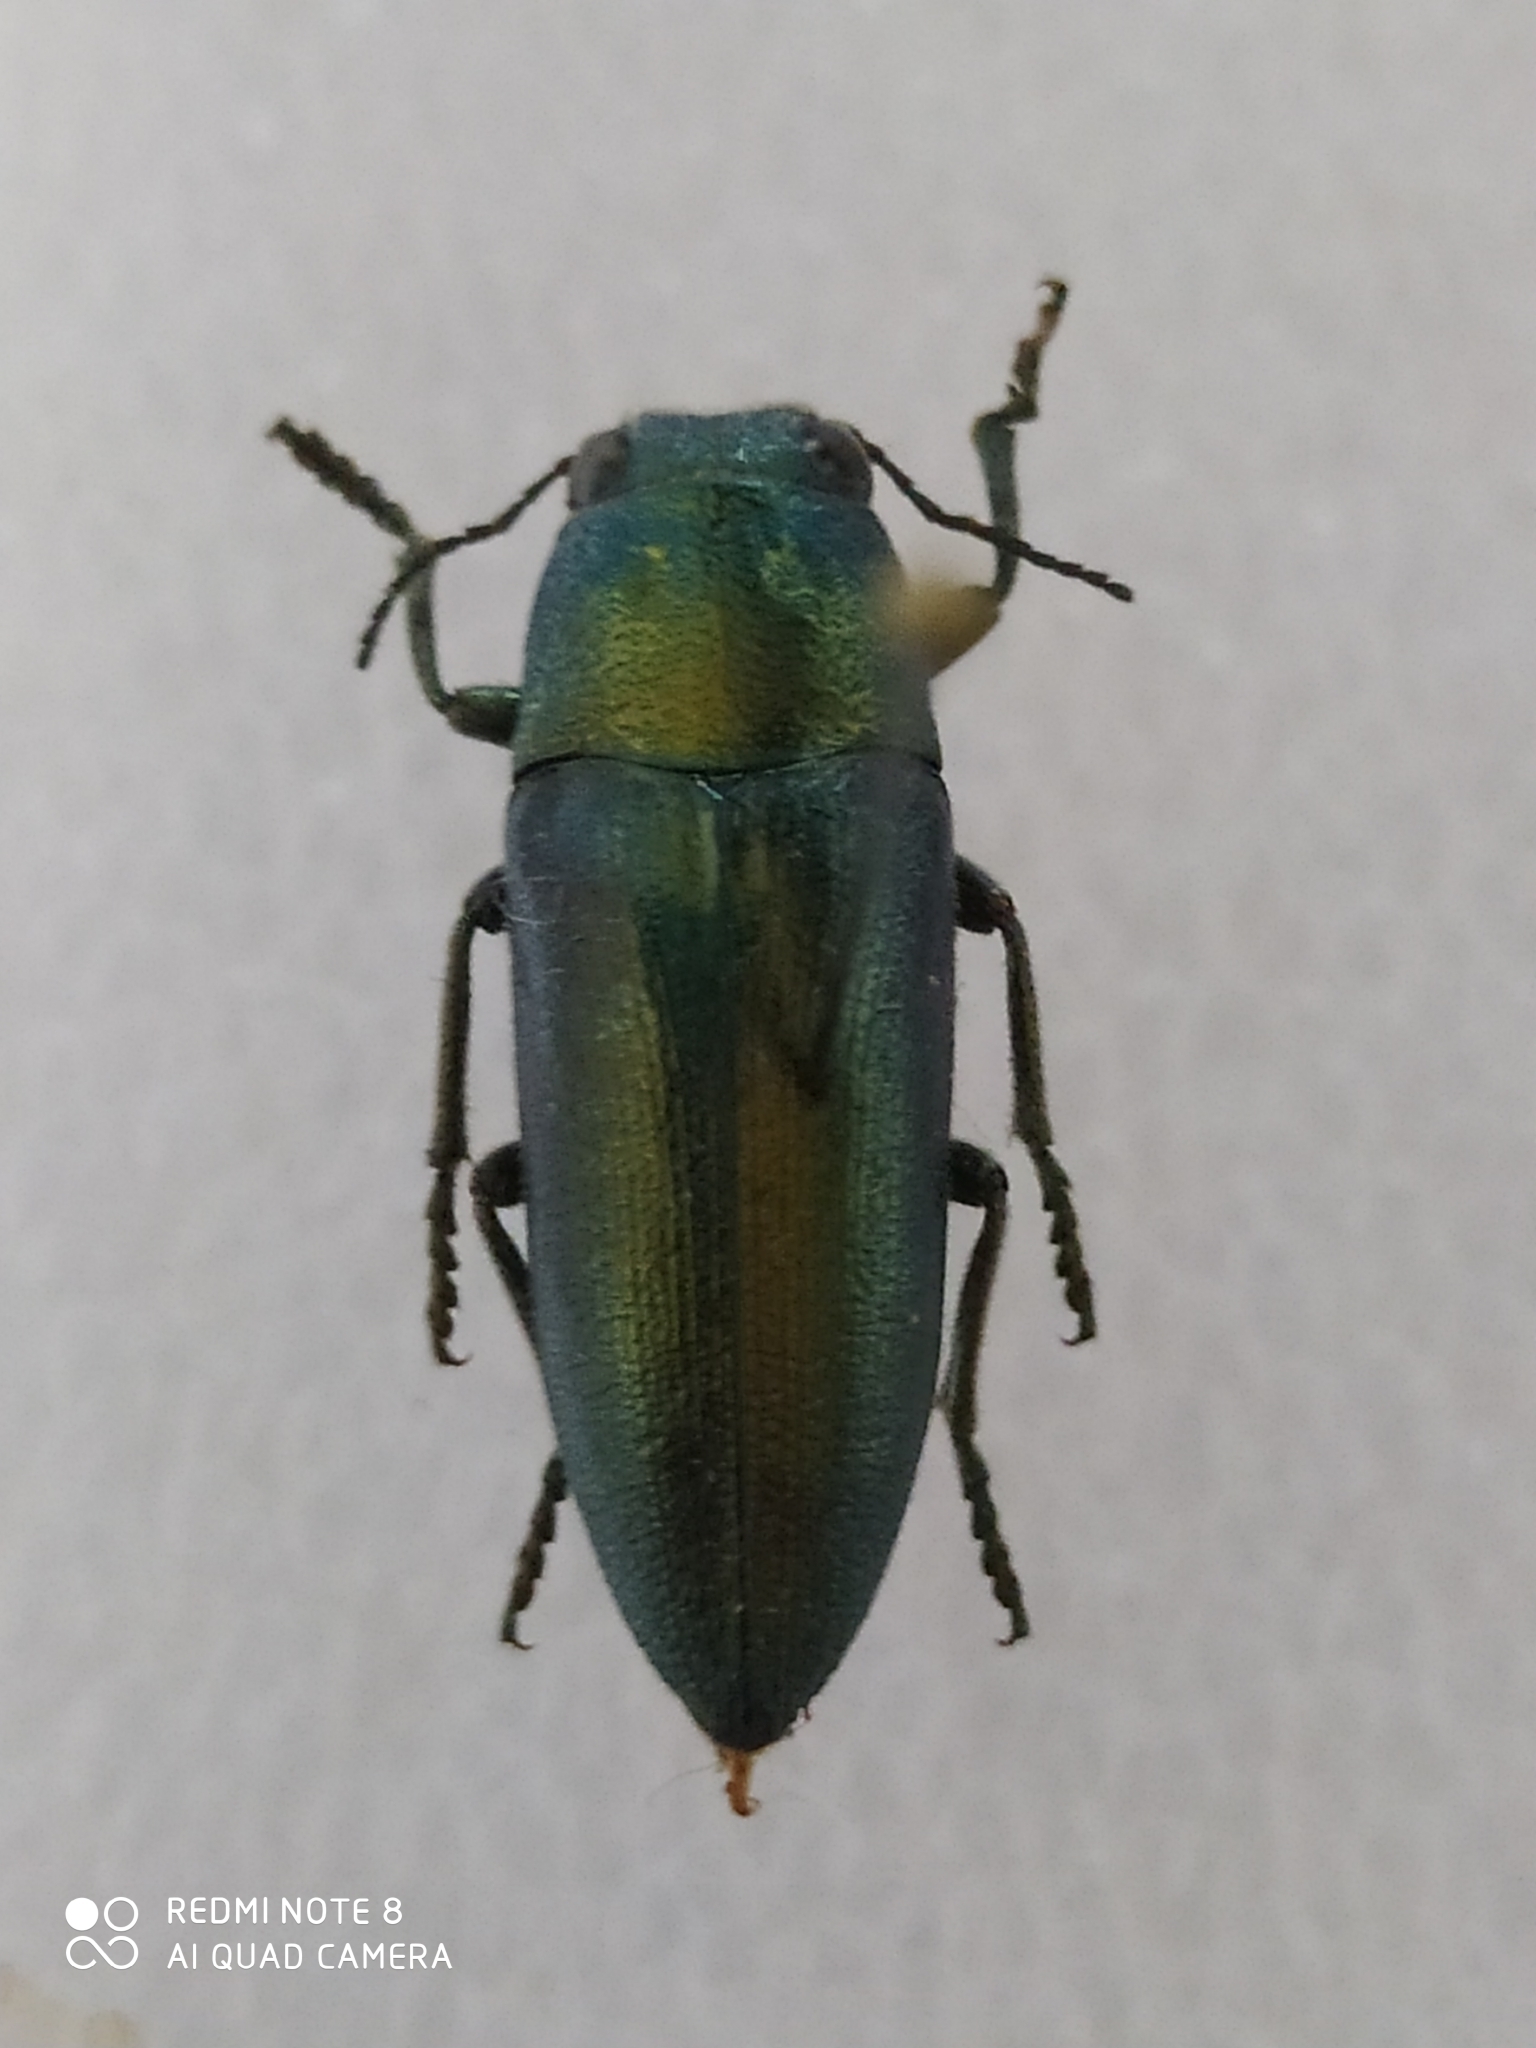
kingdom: Animalia
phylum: Arthropoda
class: Insecta
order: Coleoptera
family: Buprestidae
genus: Hippomelas
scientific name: Hippomelas mexicanus
